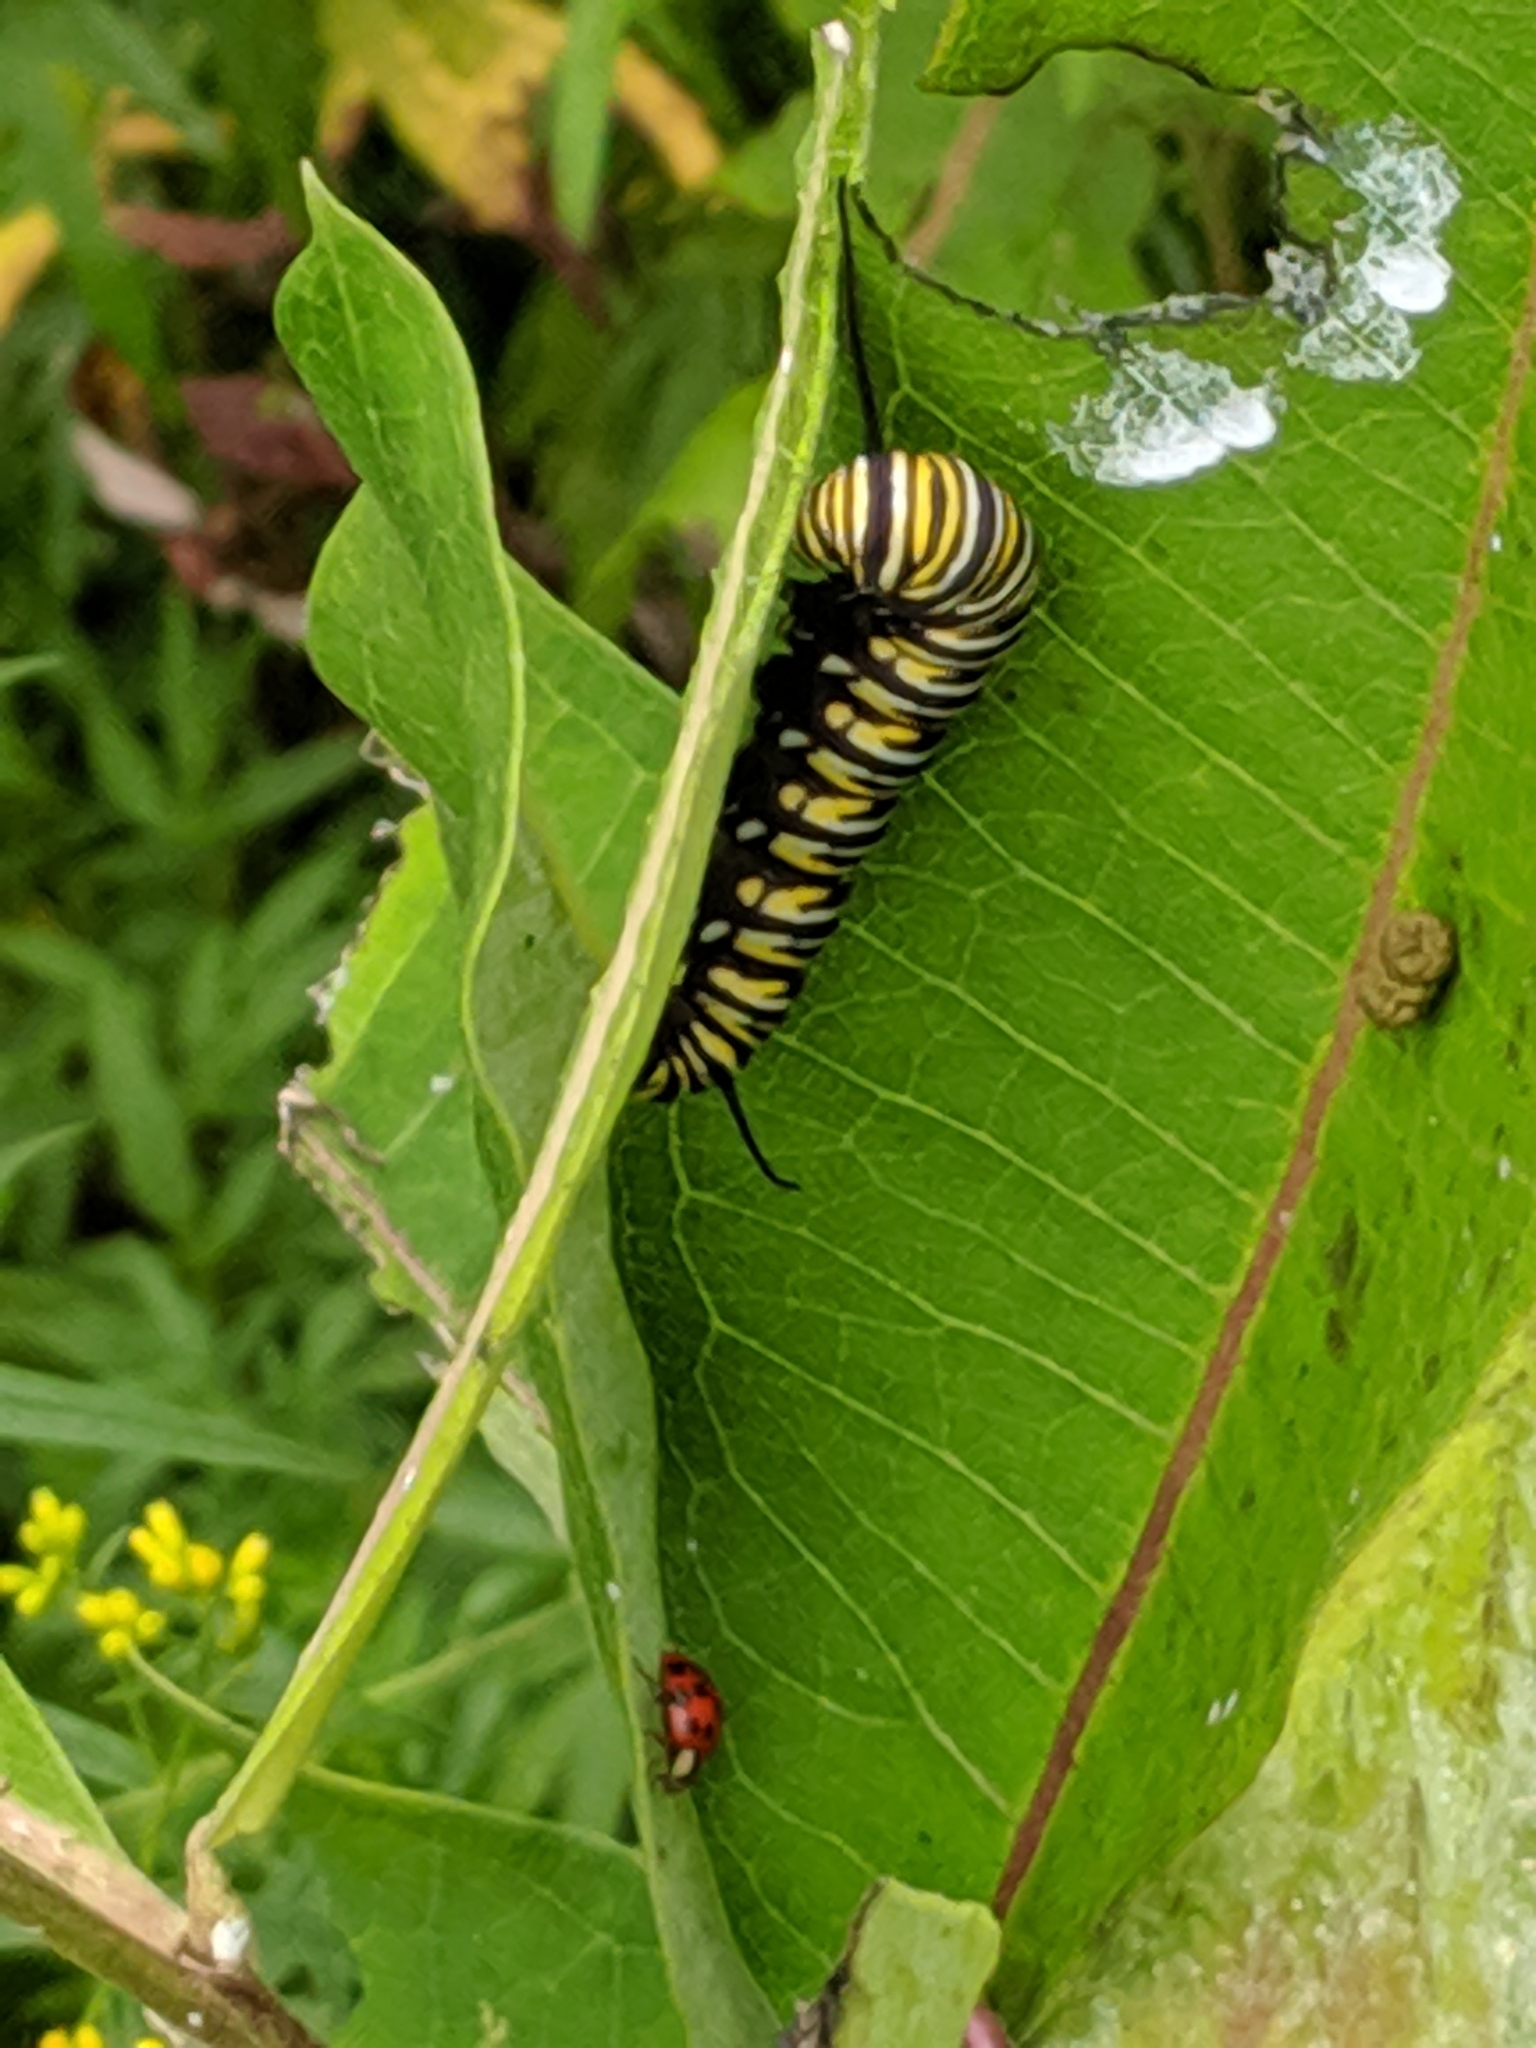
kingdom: Animalia
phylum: Arthropoda
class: Insecta
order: Lepidoptera
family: Nymphalidae
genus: Danaus
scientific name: Danaus plexippus
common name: Monarch
